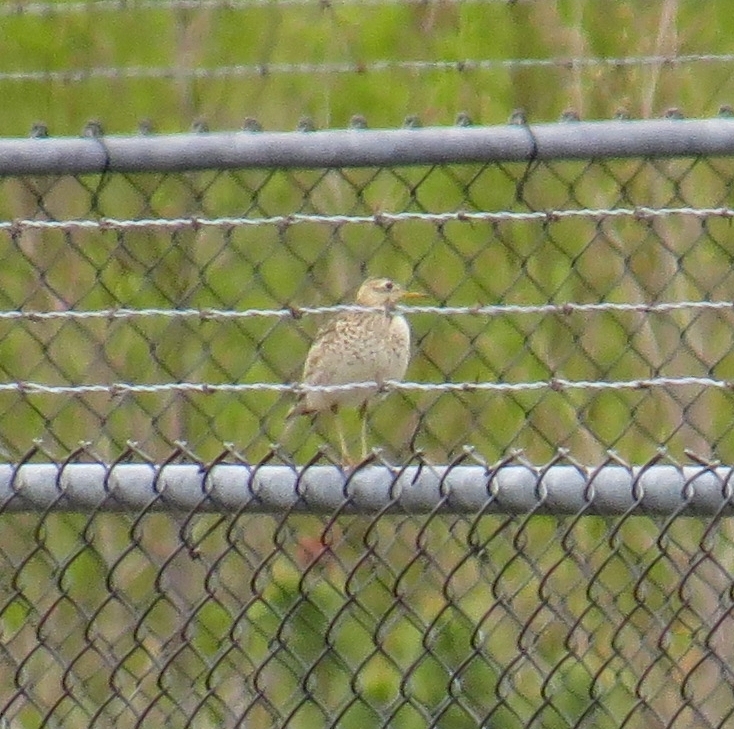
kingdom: Animalia
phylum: Chordata
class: Aves
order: Charadriiformes
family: Scolopacidae
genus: Bartramia
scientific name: Bartramia longicauda
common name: Upland sandpiper
